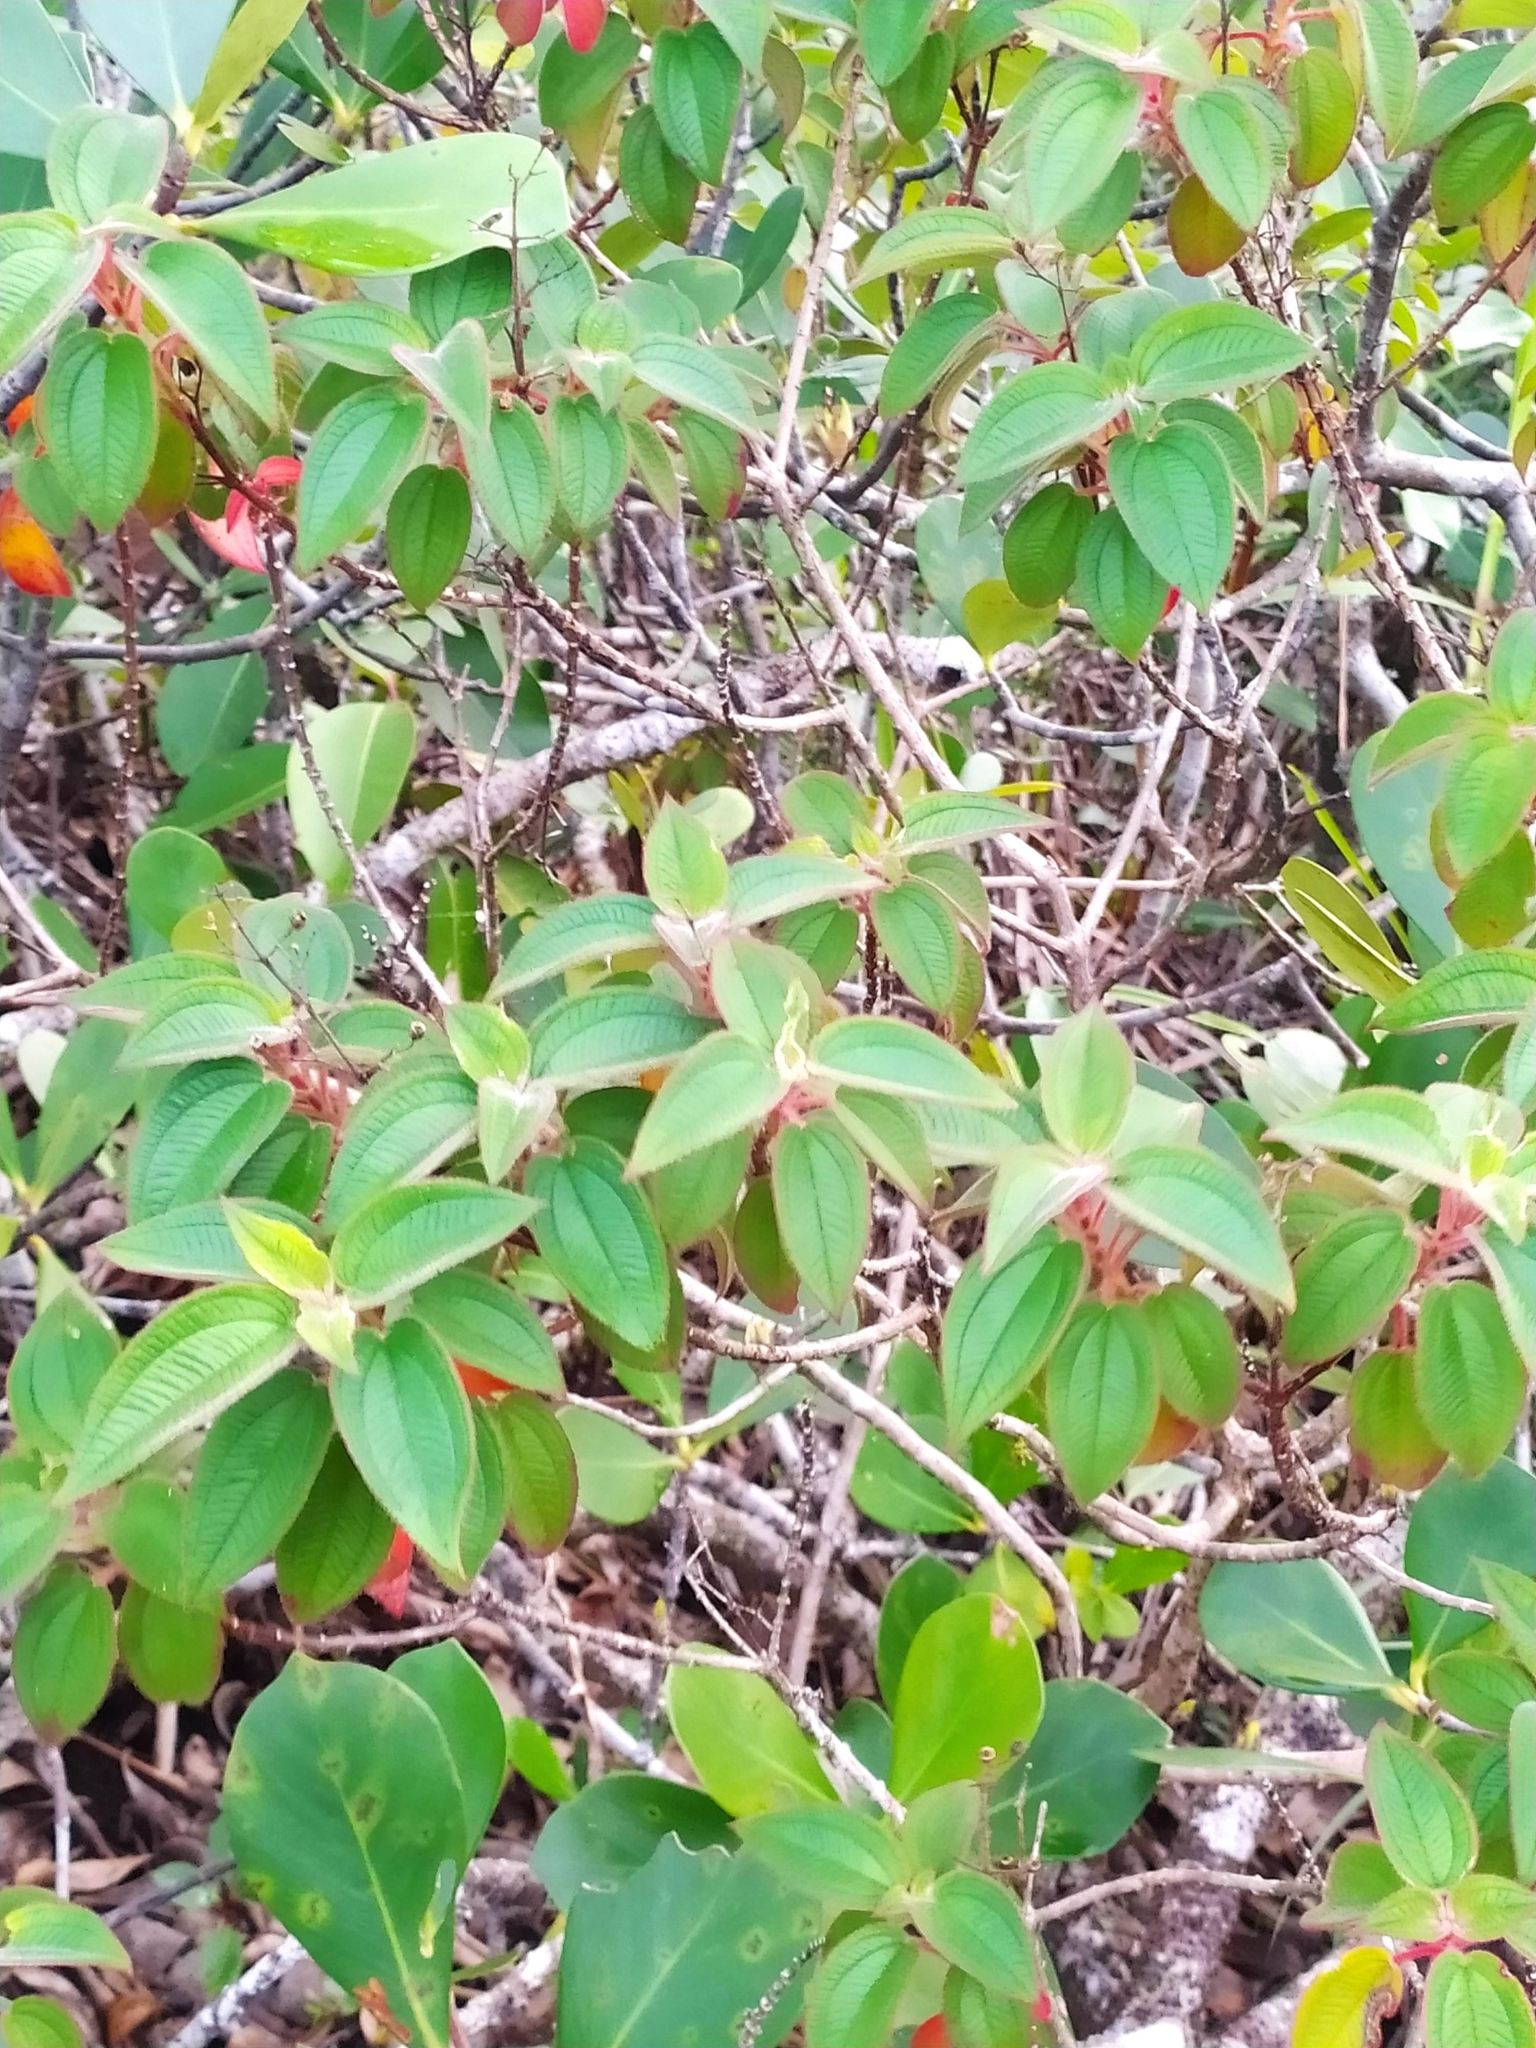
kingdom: Plantae
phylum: Tracheophyta
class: Magnoliopsida
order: Myrtales
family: Melastomataceae
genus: Ernestia
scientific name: Ernestia granvillei
